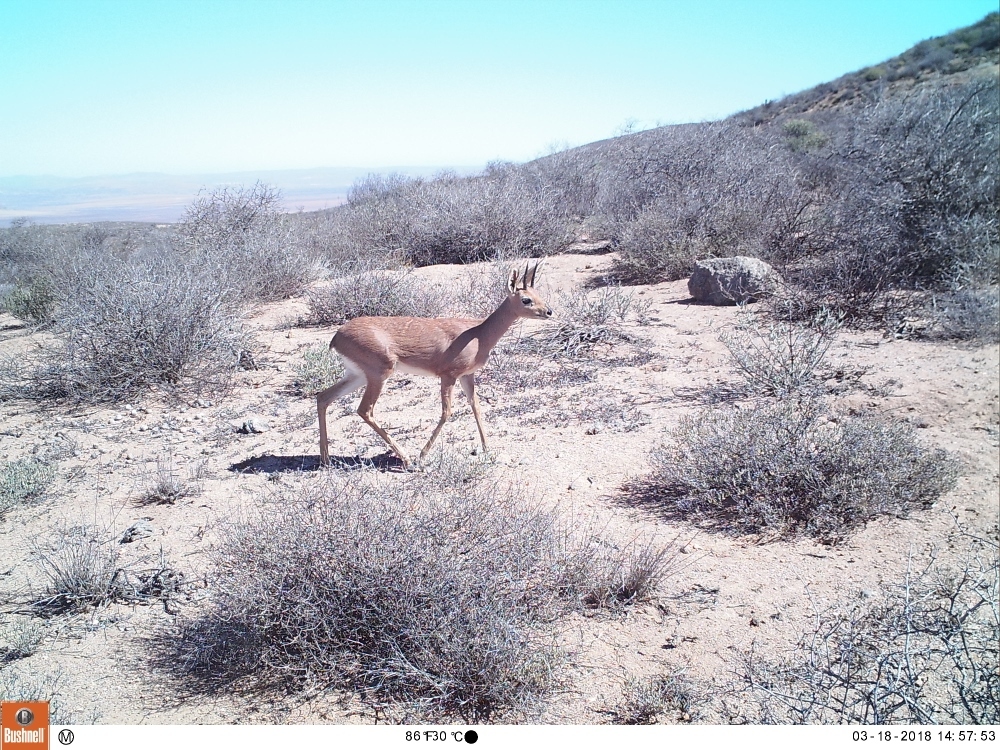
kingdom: Animalia
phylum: Chordata
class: Mammalia
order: Artiodactyla
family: Bovidae
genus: Raphicerus
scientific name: Raphicerus campestris
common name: Steenbok
